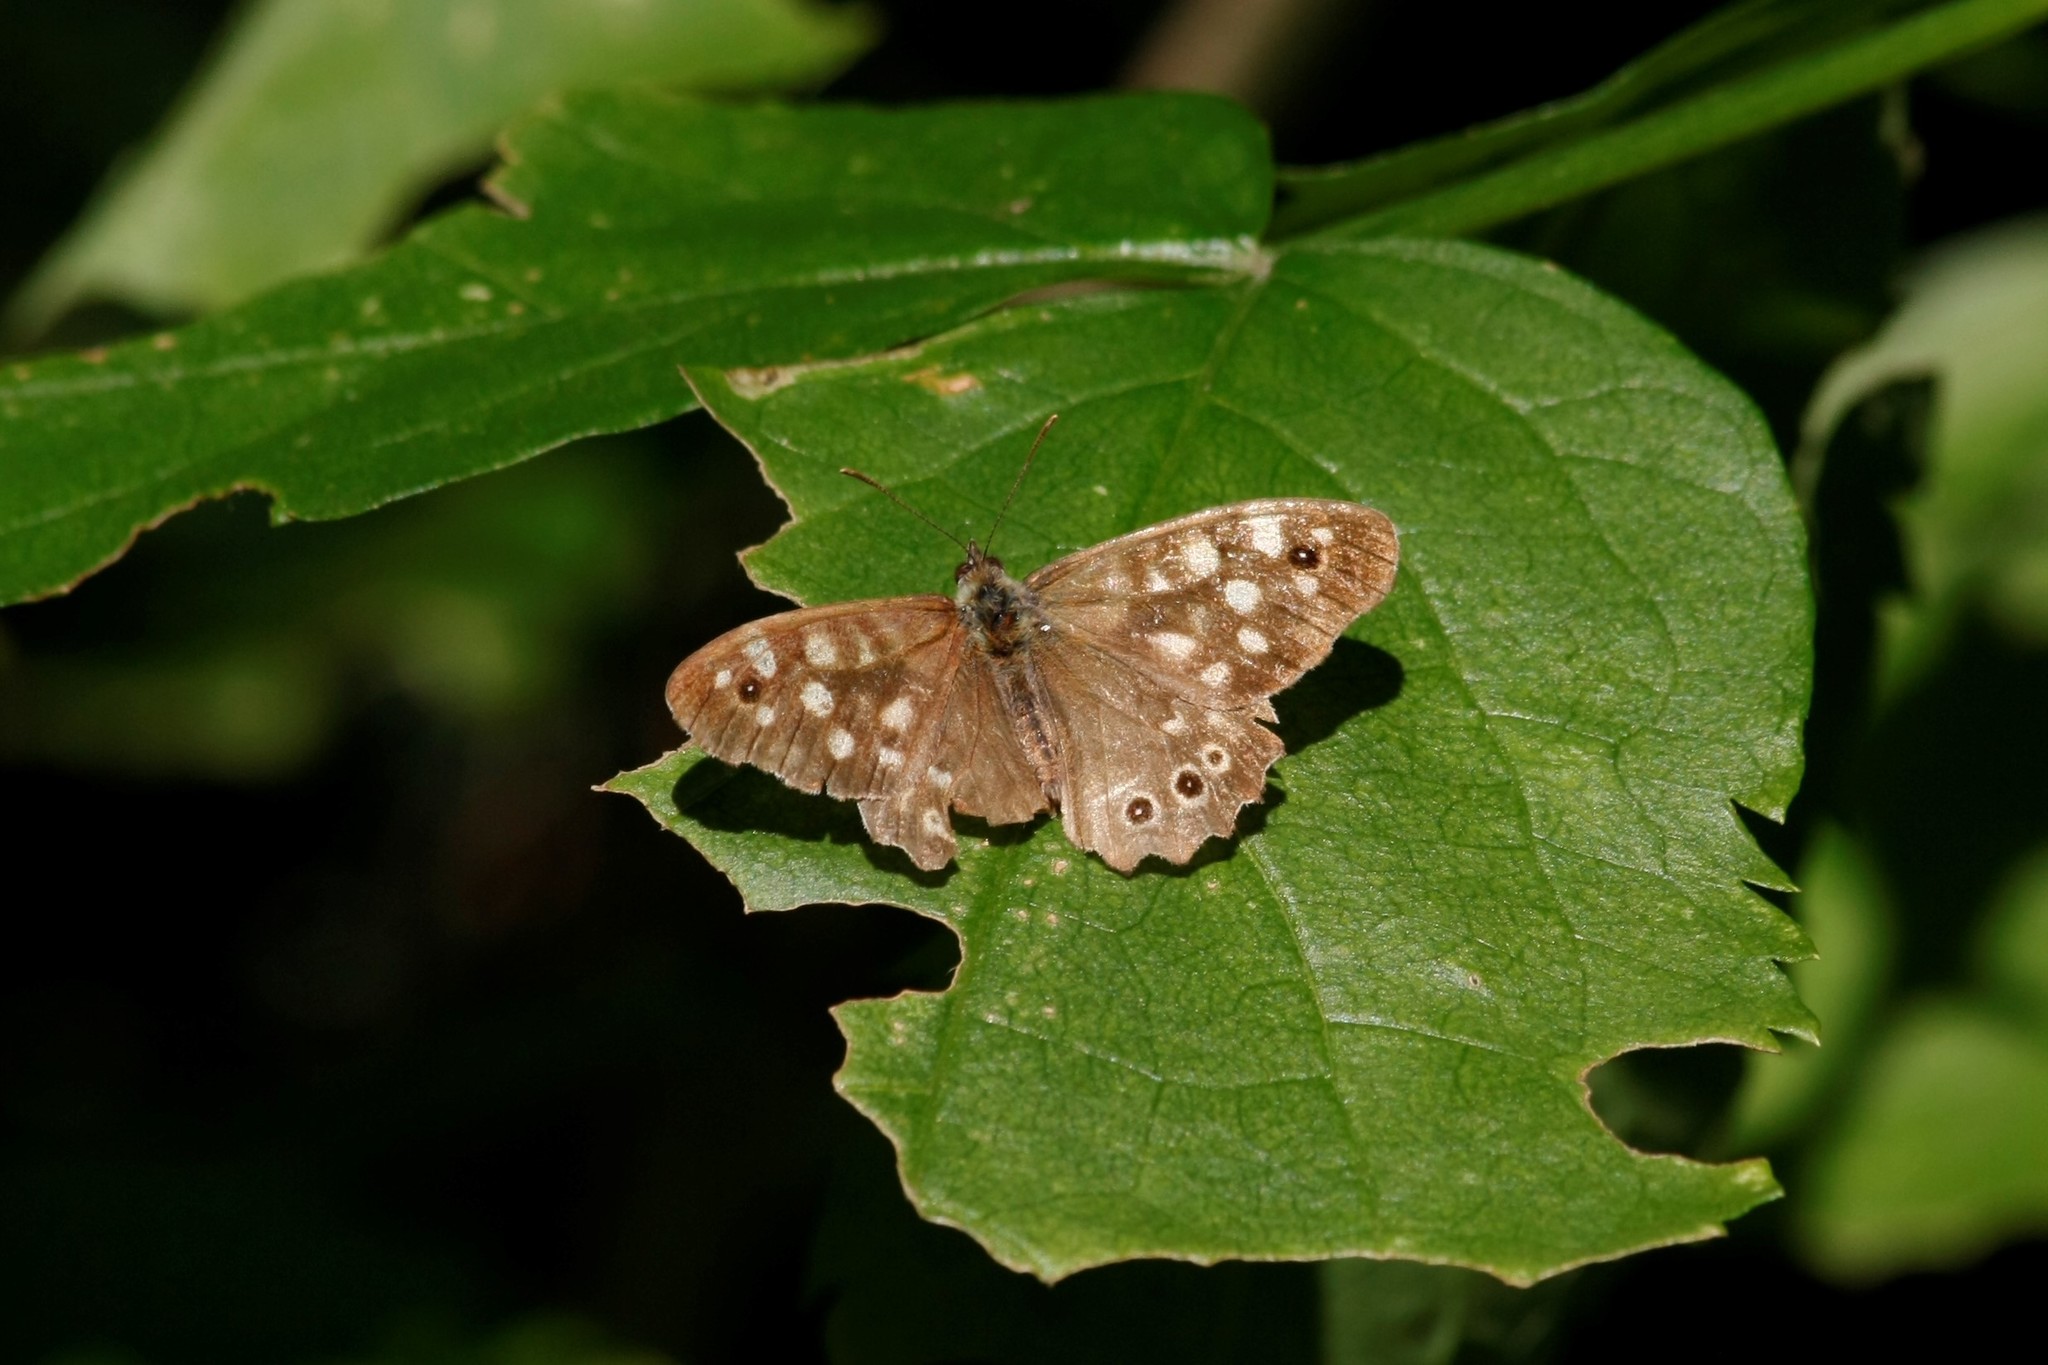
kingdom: Animalia
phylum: Arthropoda
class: Insecta
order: Lepidoptera
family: Nymphalidae
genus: Pararge
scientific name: Pararge aegeria
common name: Speckled wood
